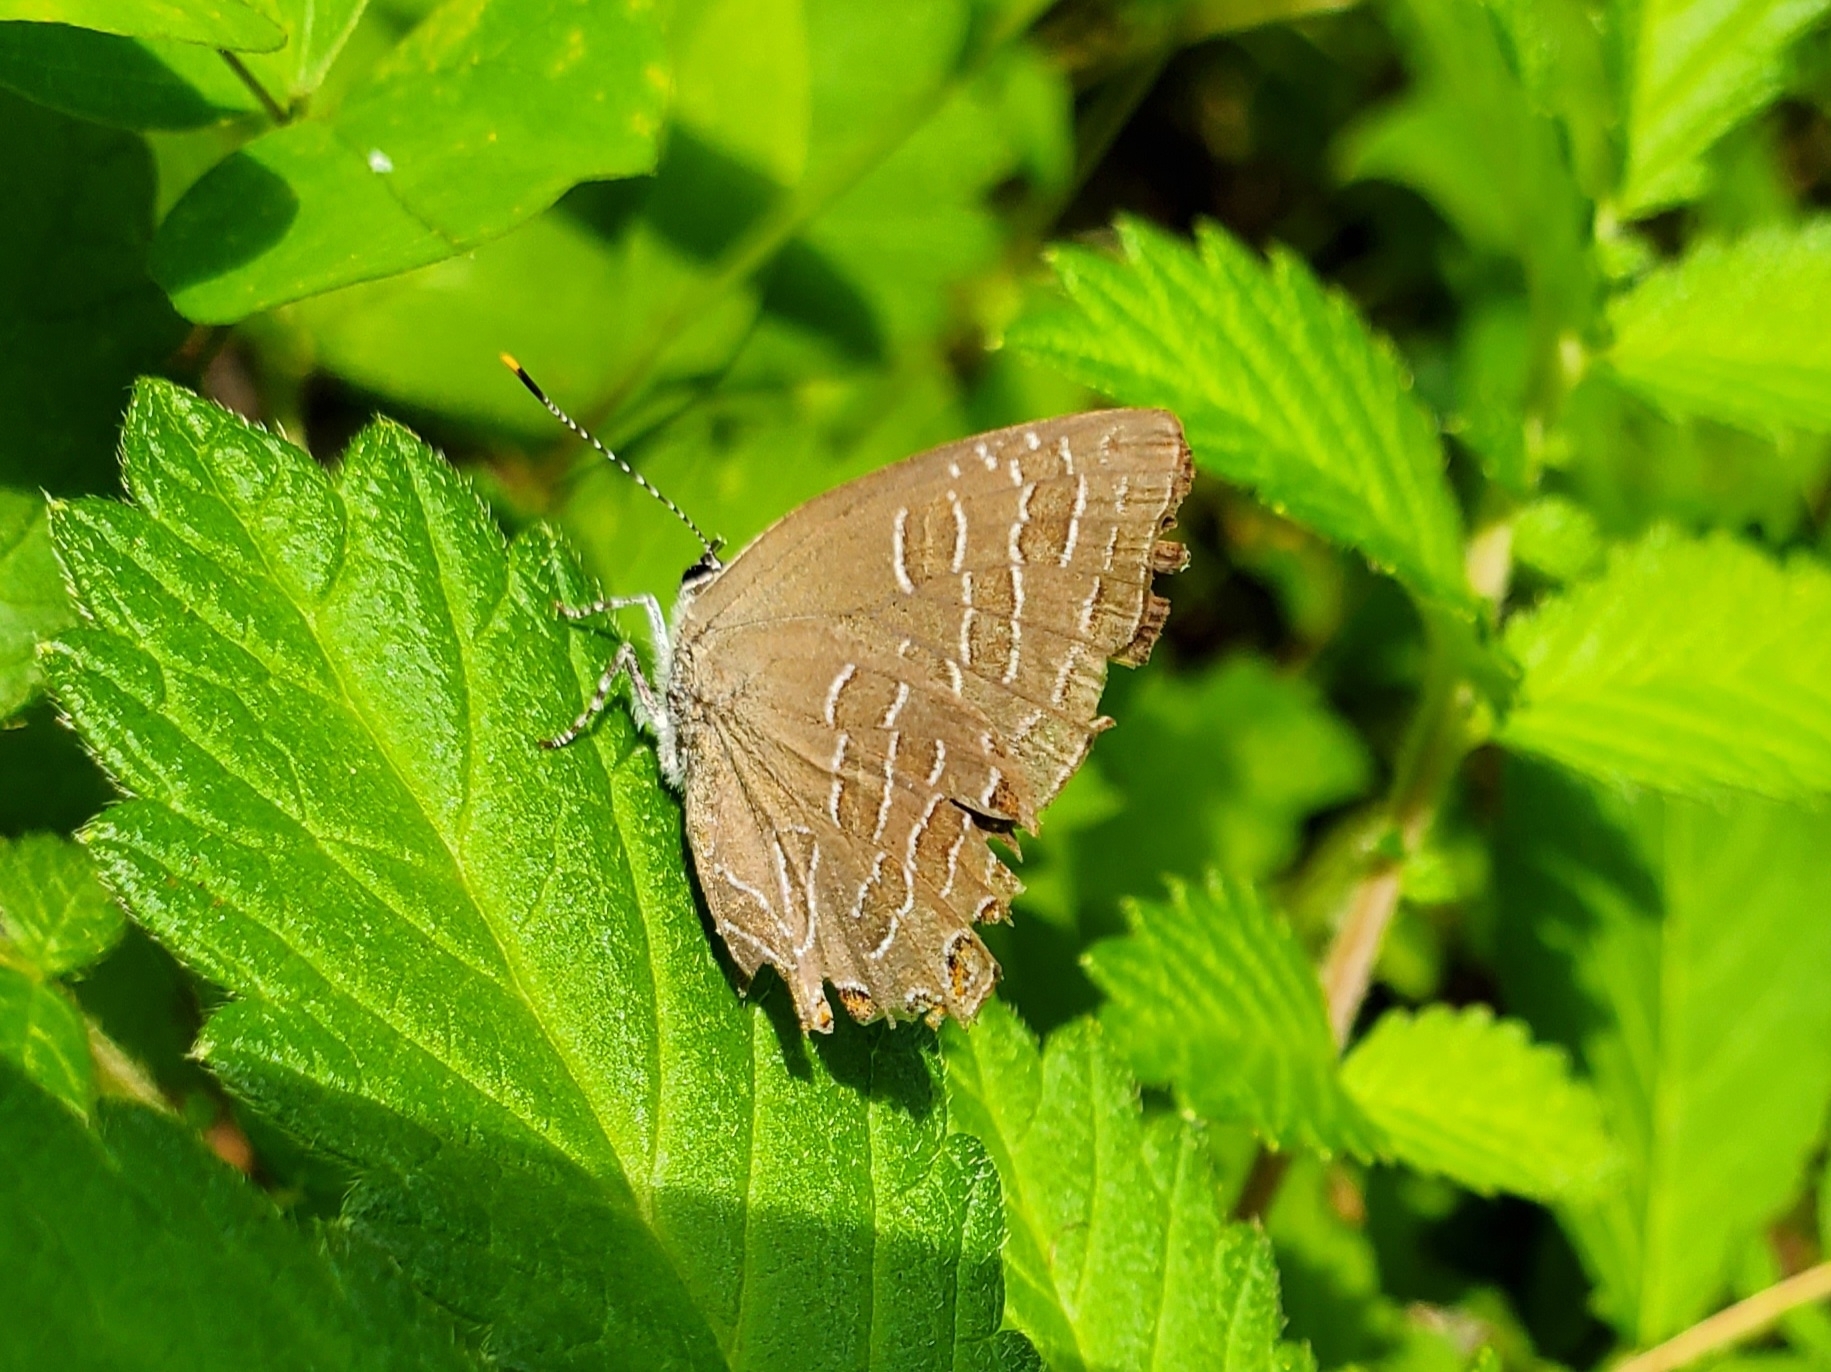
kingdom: Animalia
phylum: Arthropoda
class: Insecta
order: Lepidoptera
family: Lycaenidae
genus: Satyrium
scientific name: Satyrium liparops
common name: Striped hairstreak
